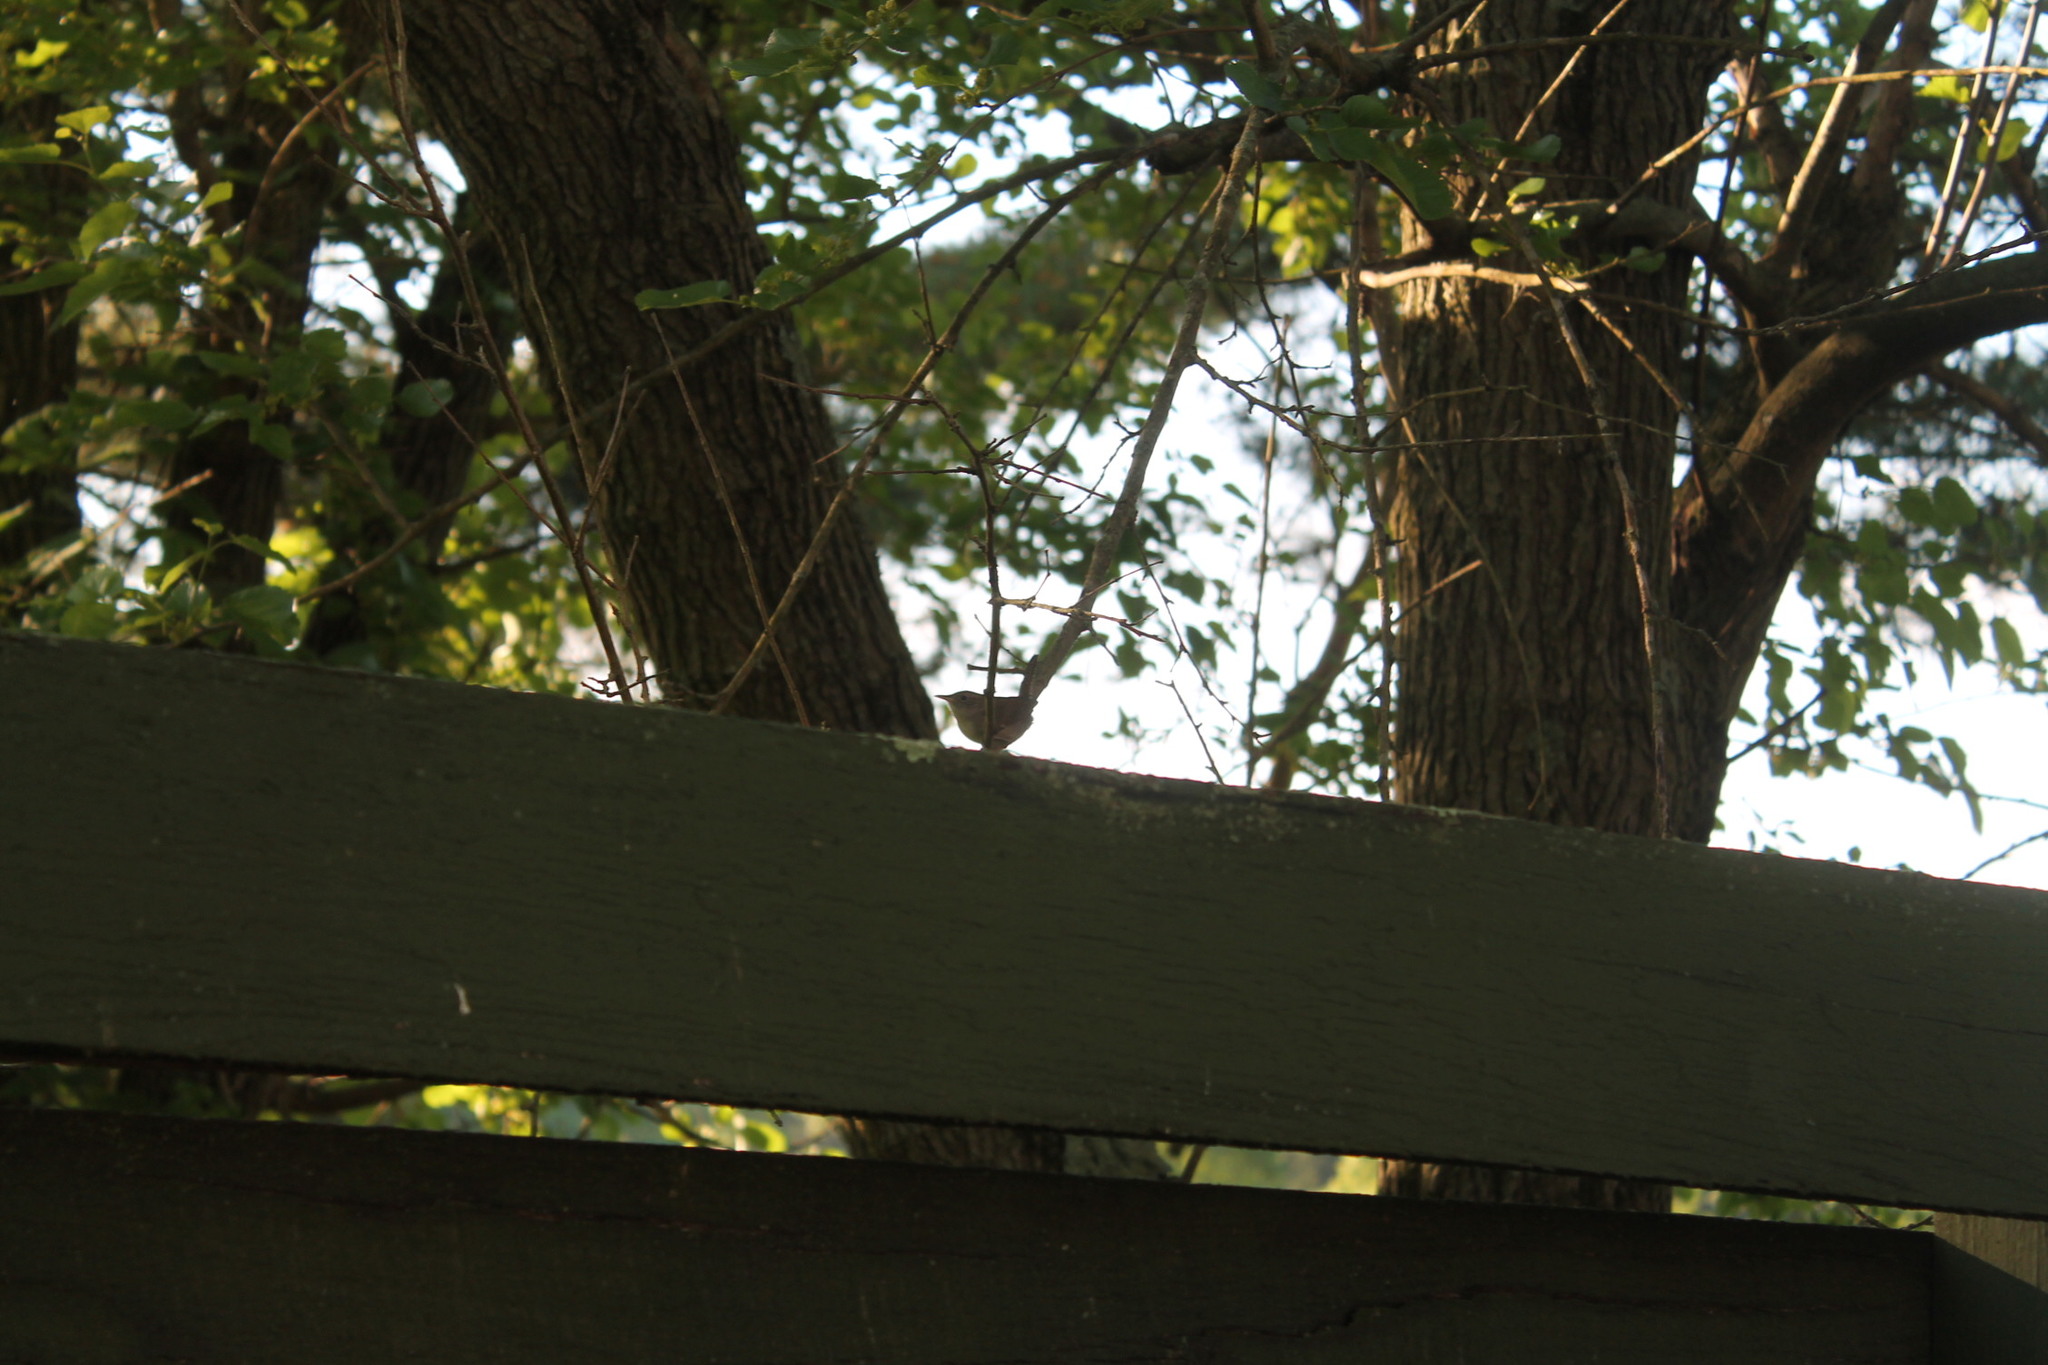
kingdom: Animalia
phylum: Chordata
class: Aves
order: Passeriformes
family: Troglodytidae
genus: Troglodytes
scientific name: Troglodytes aedon
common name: House wren
